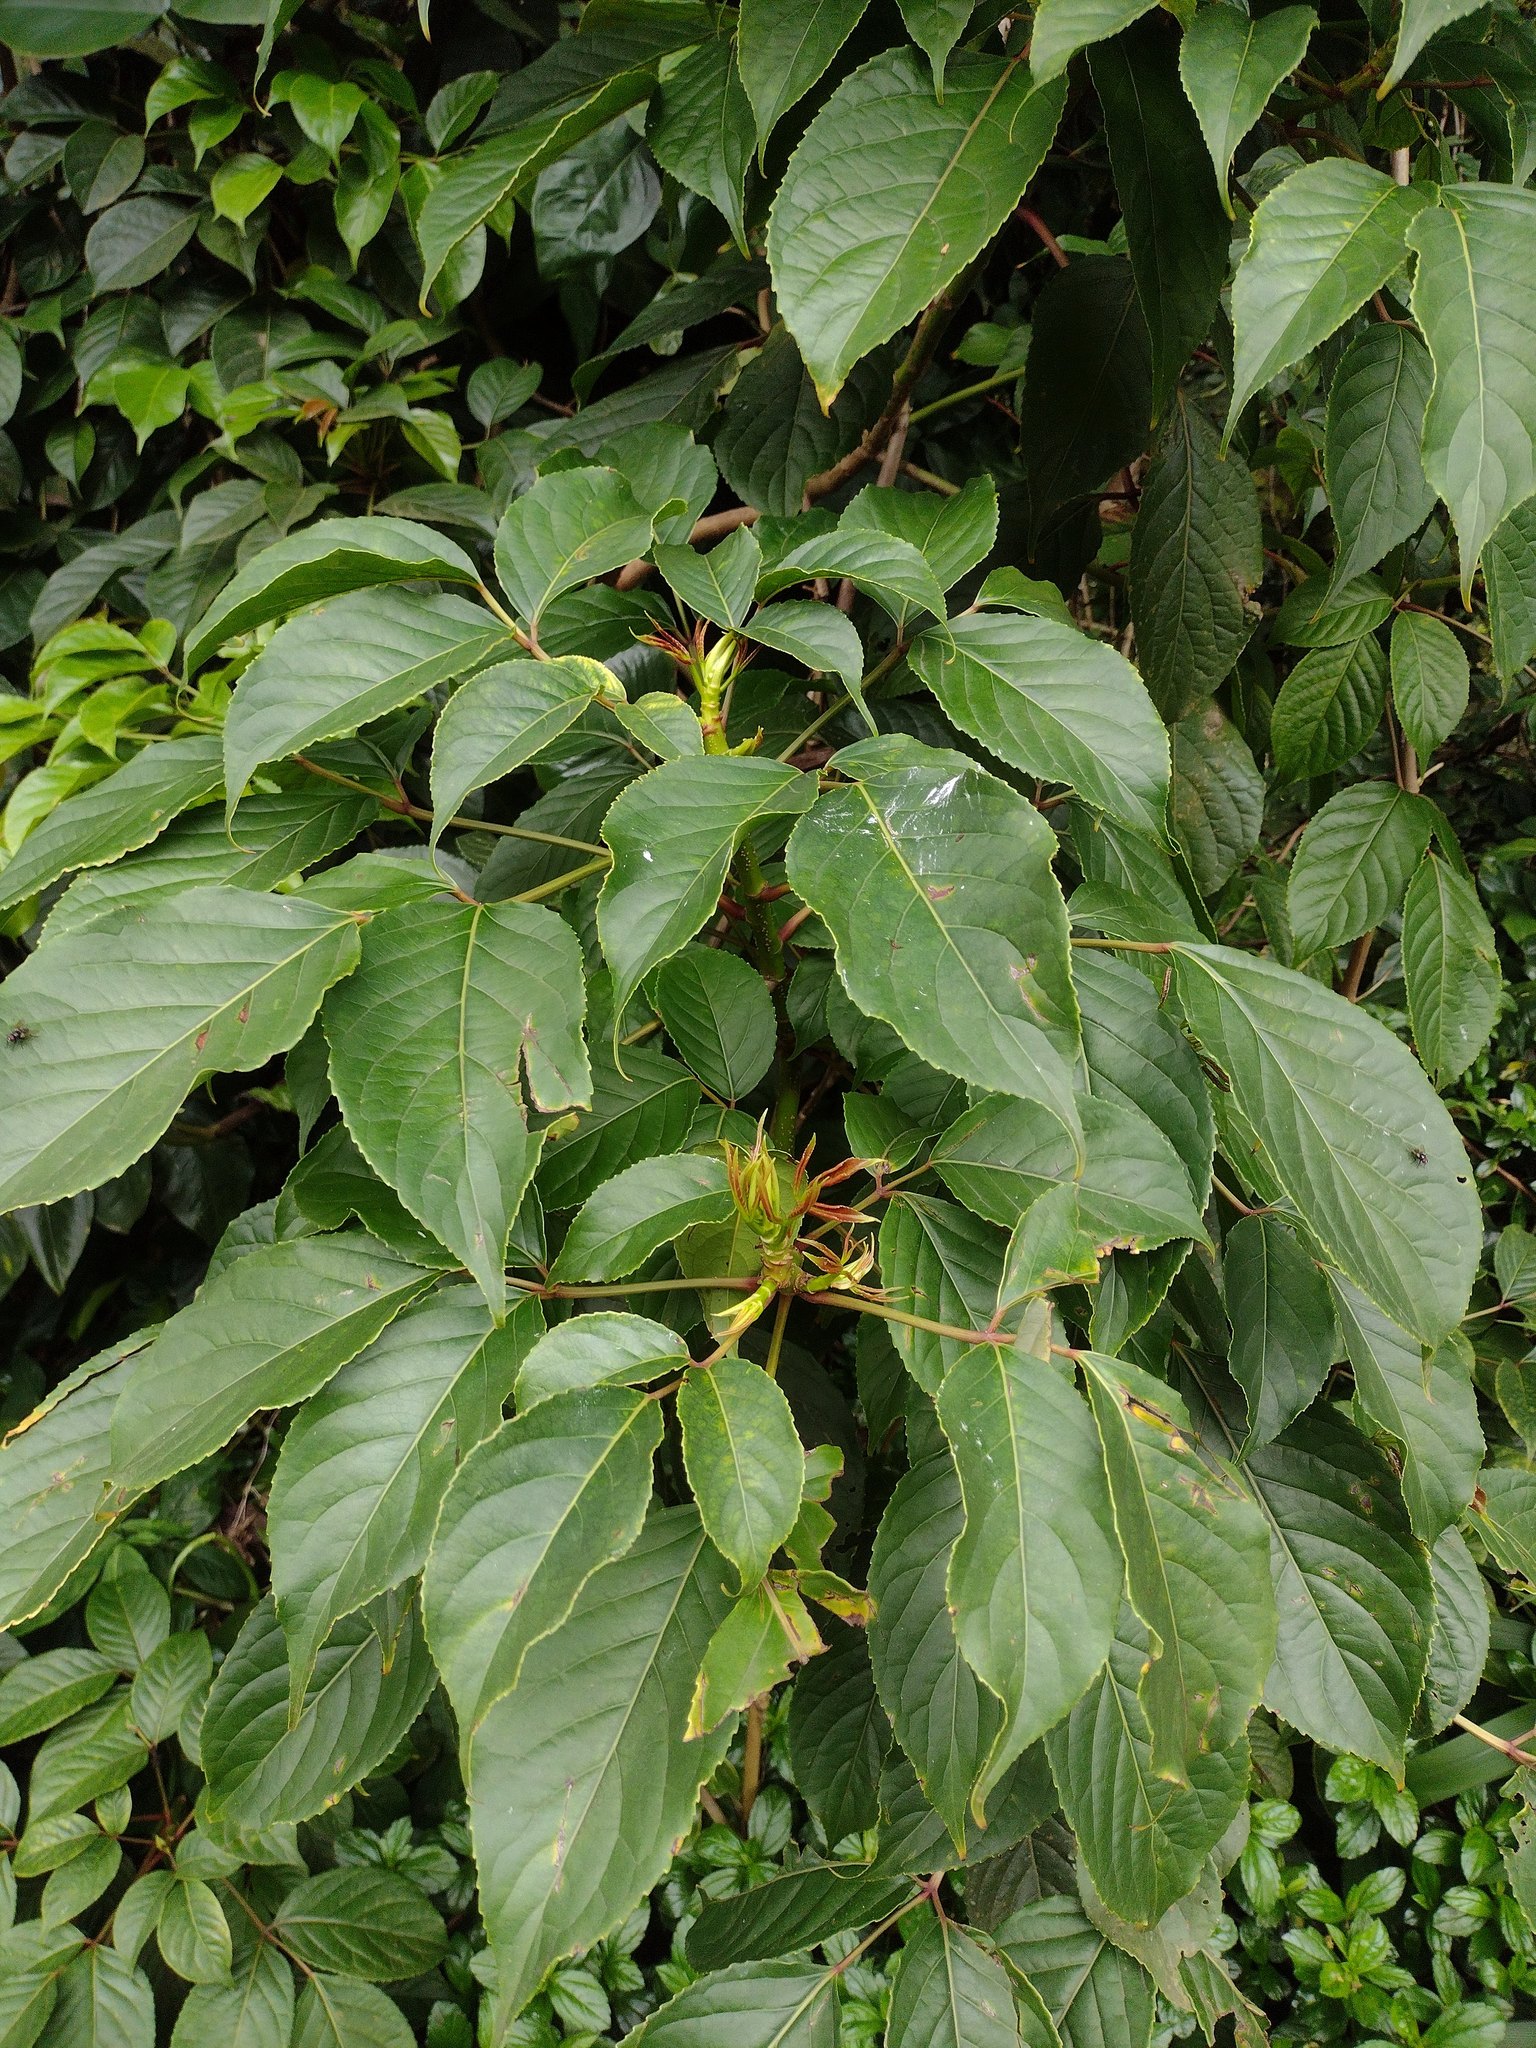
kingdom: Plantae
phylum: Tracheophyta
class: Magnoliopsida
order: Malpighiales
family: Phyllanthaceae
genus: Bischofia
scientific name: Bischofia javanica
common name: Javanese bishopwood
